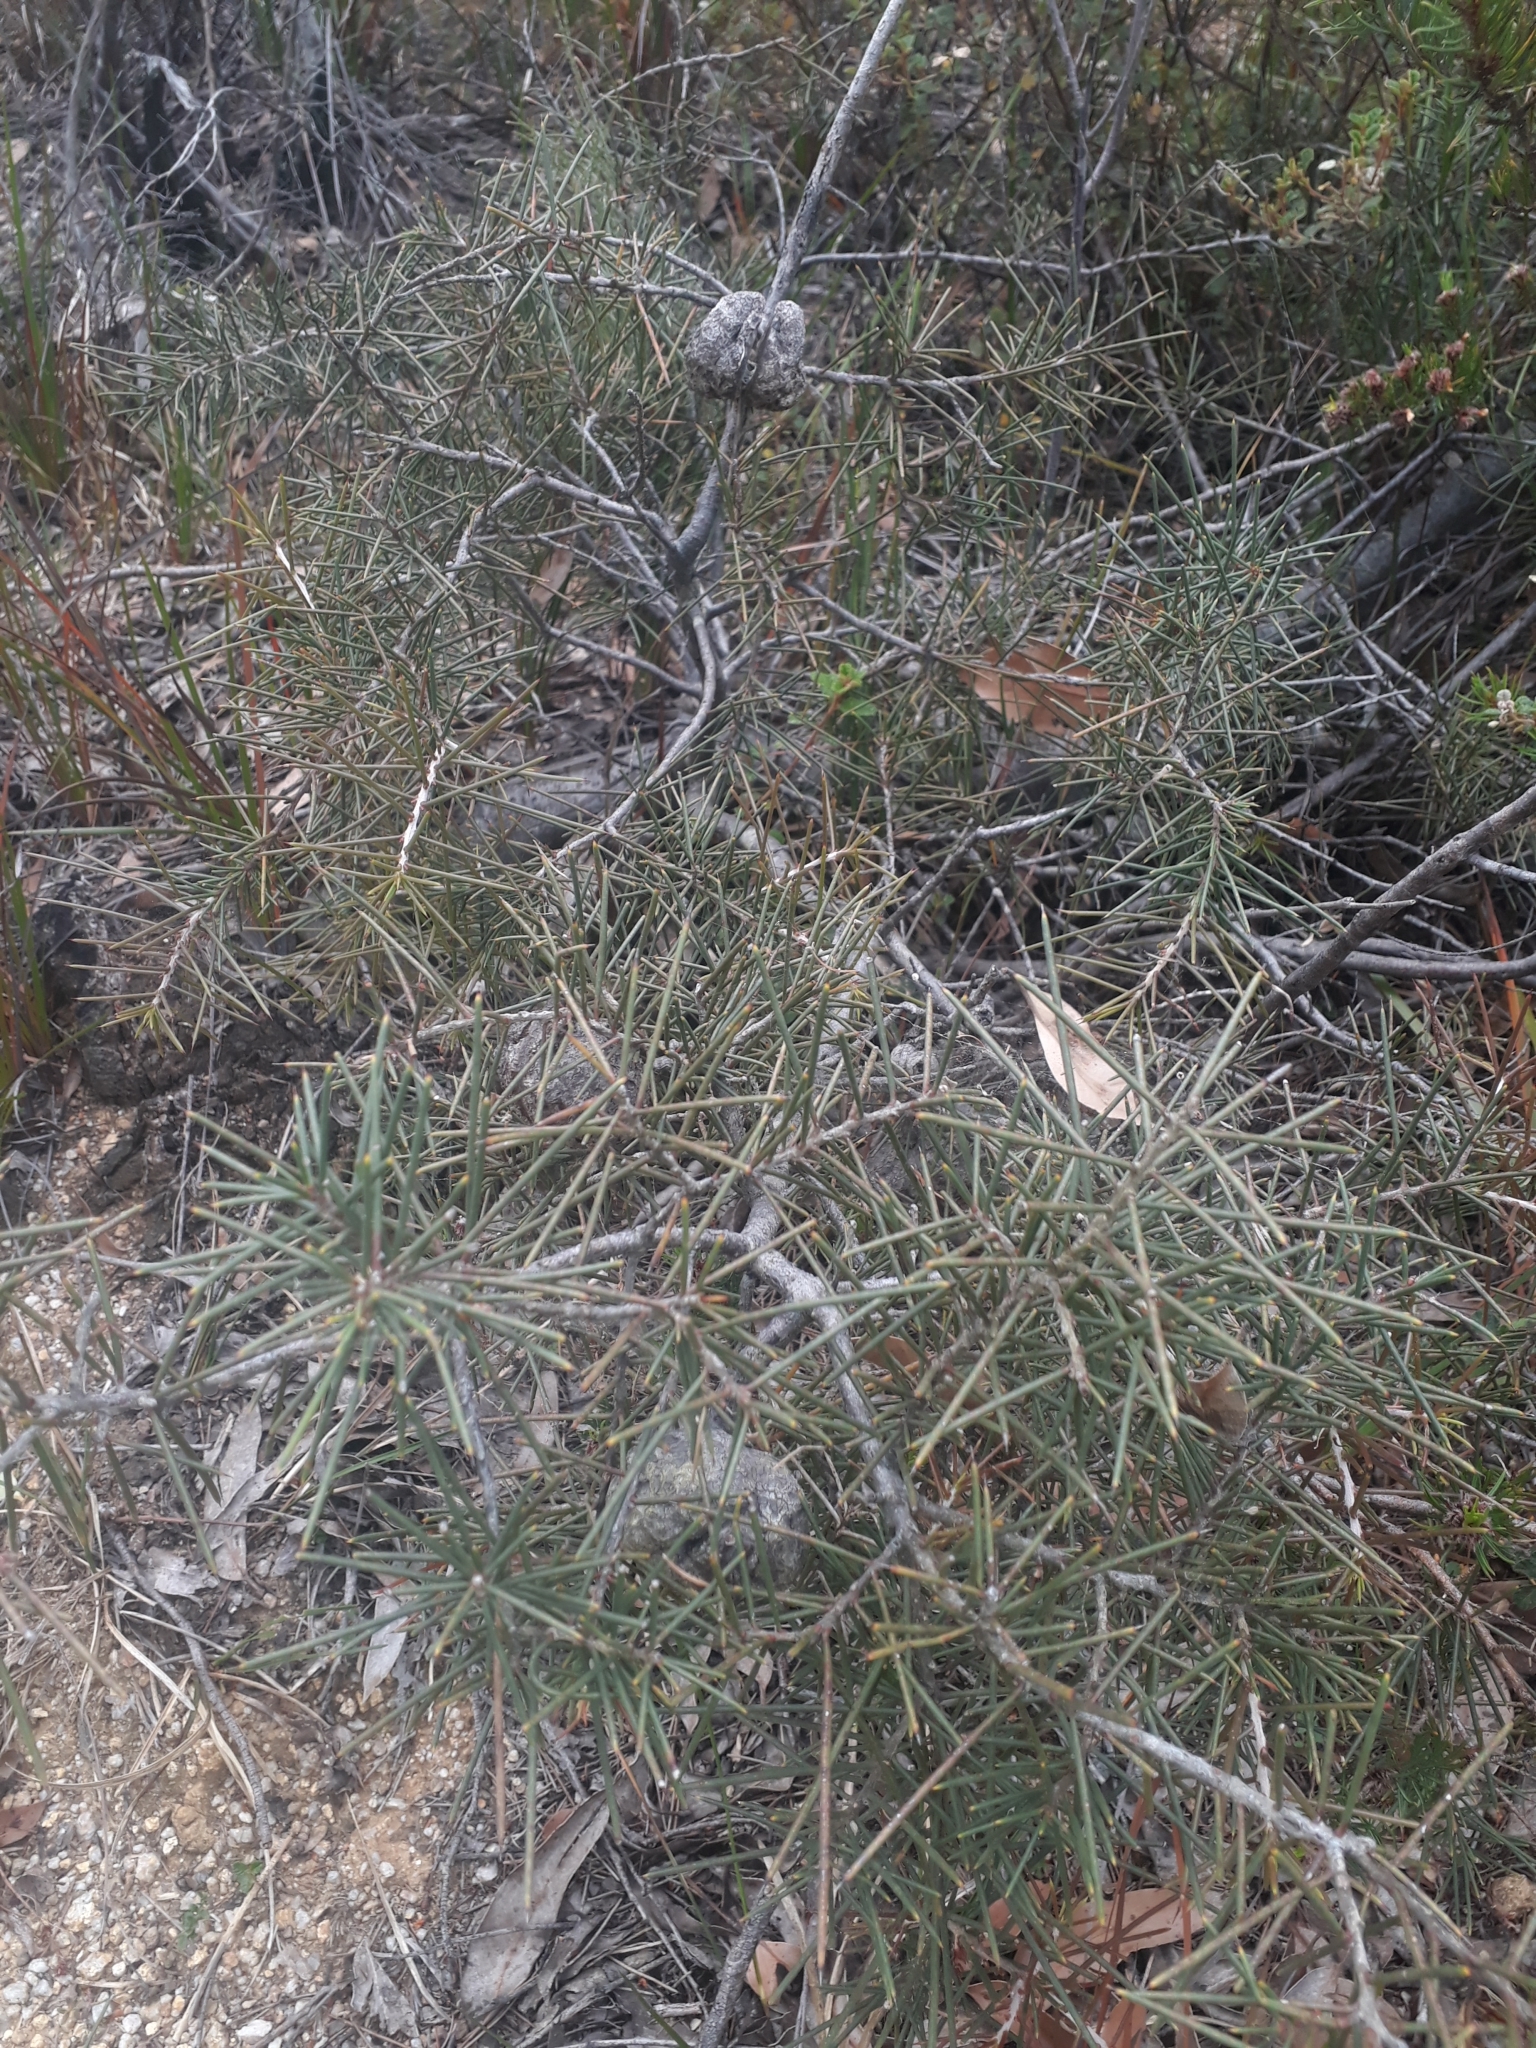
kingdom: Plantae
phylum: Tracheophyta
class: Magnoliopsida
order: Proteales
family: Proteaceae
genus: Hakea
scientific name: Hakea decurrens
